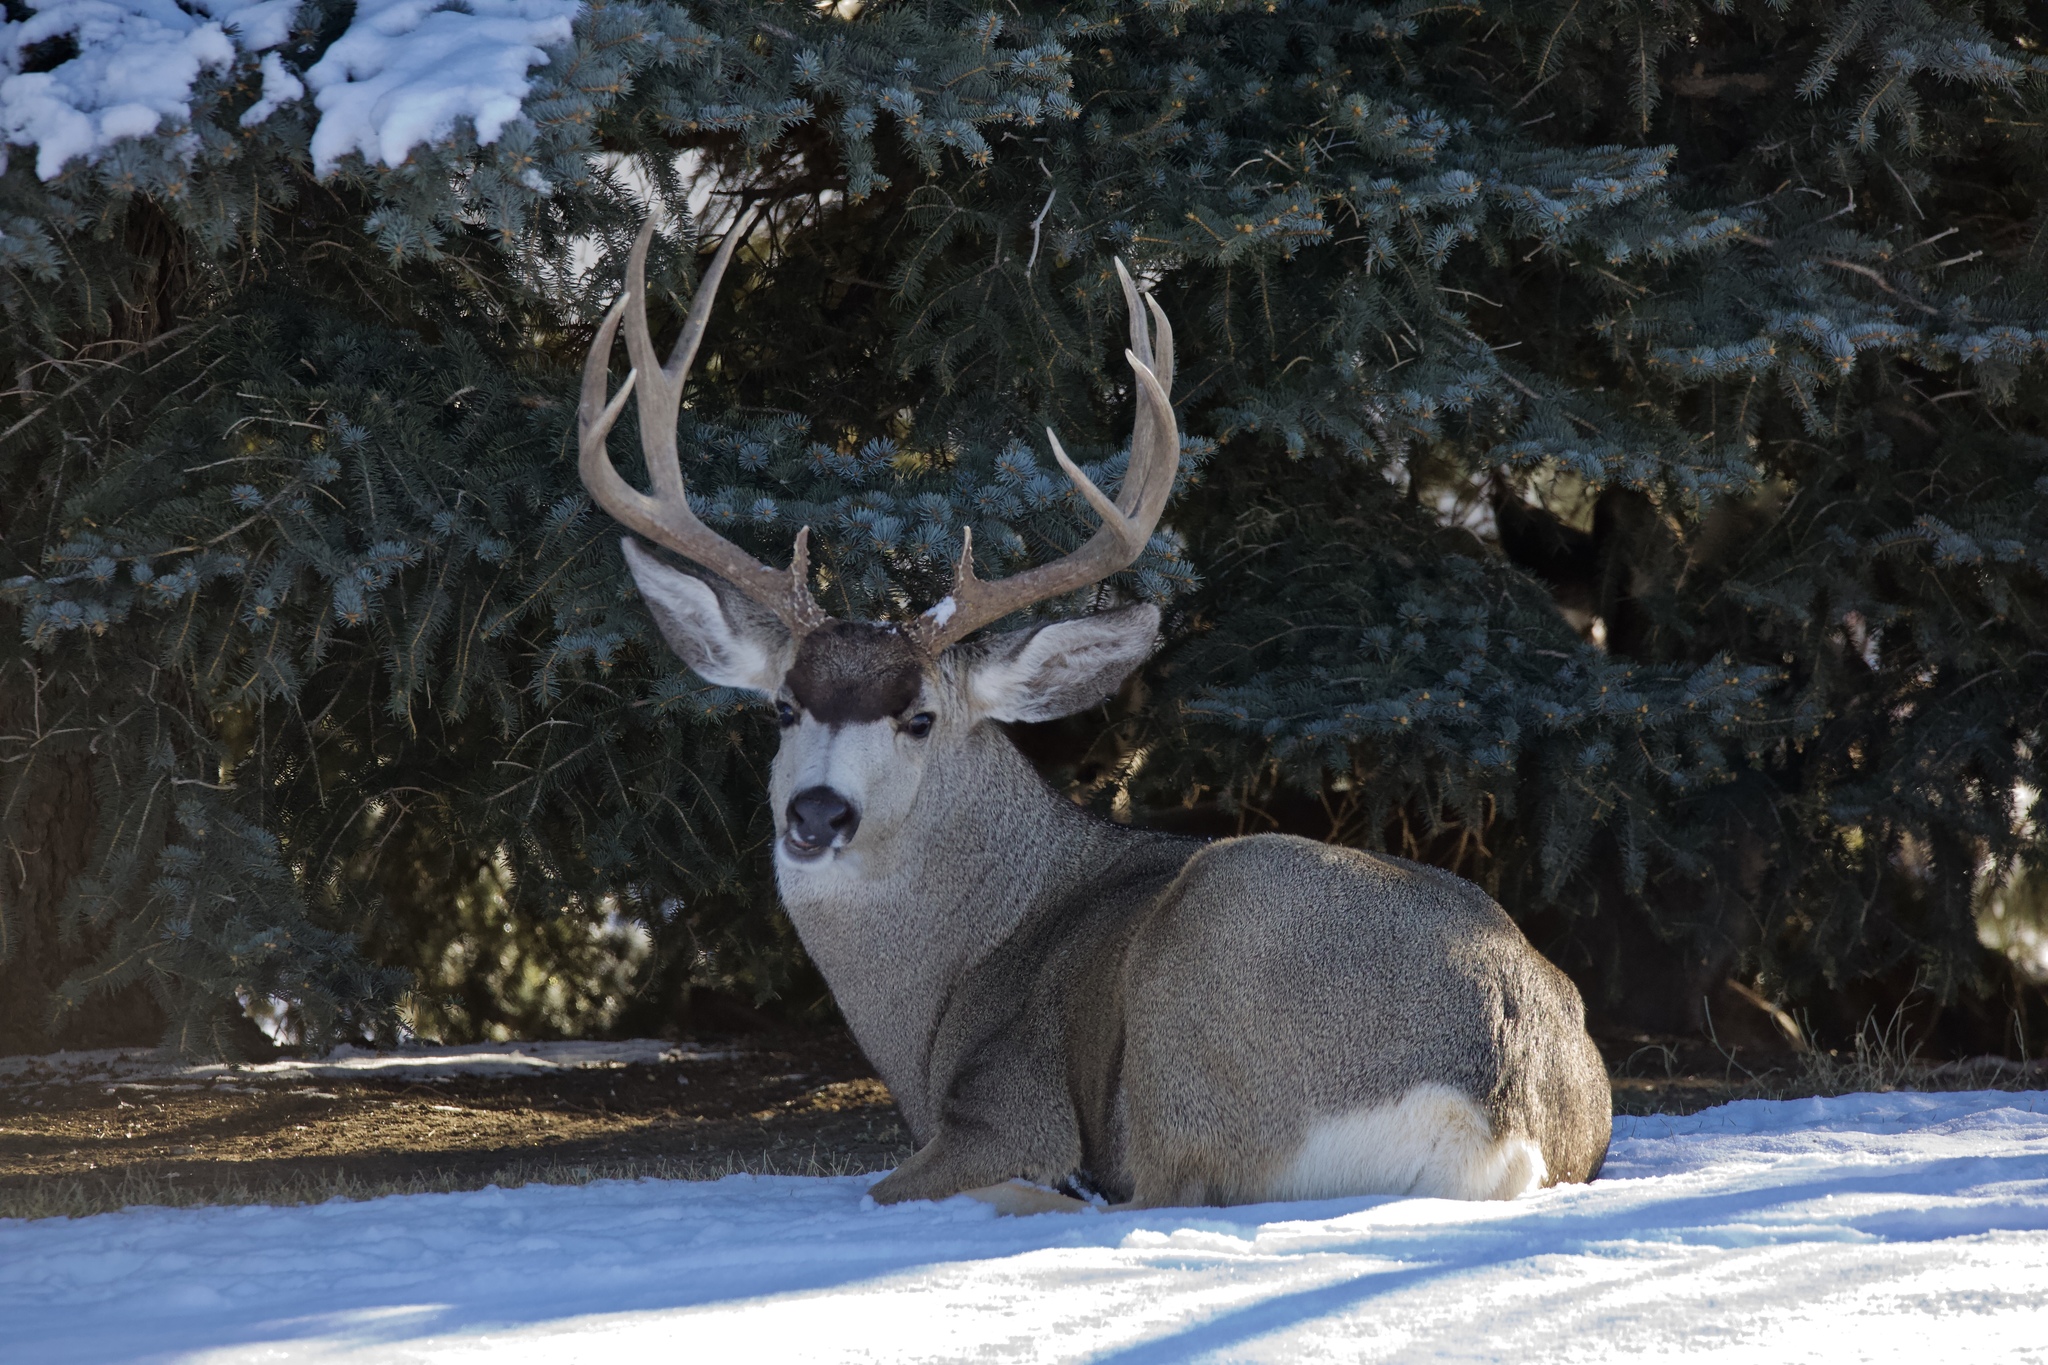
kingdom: Animalia
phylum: Chordata
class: Mammalia
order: Artiodactyla
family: Cervidae
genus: Odocoileus
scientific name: Odocoileus hemionus
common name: Mule deer
